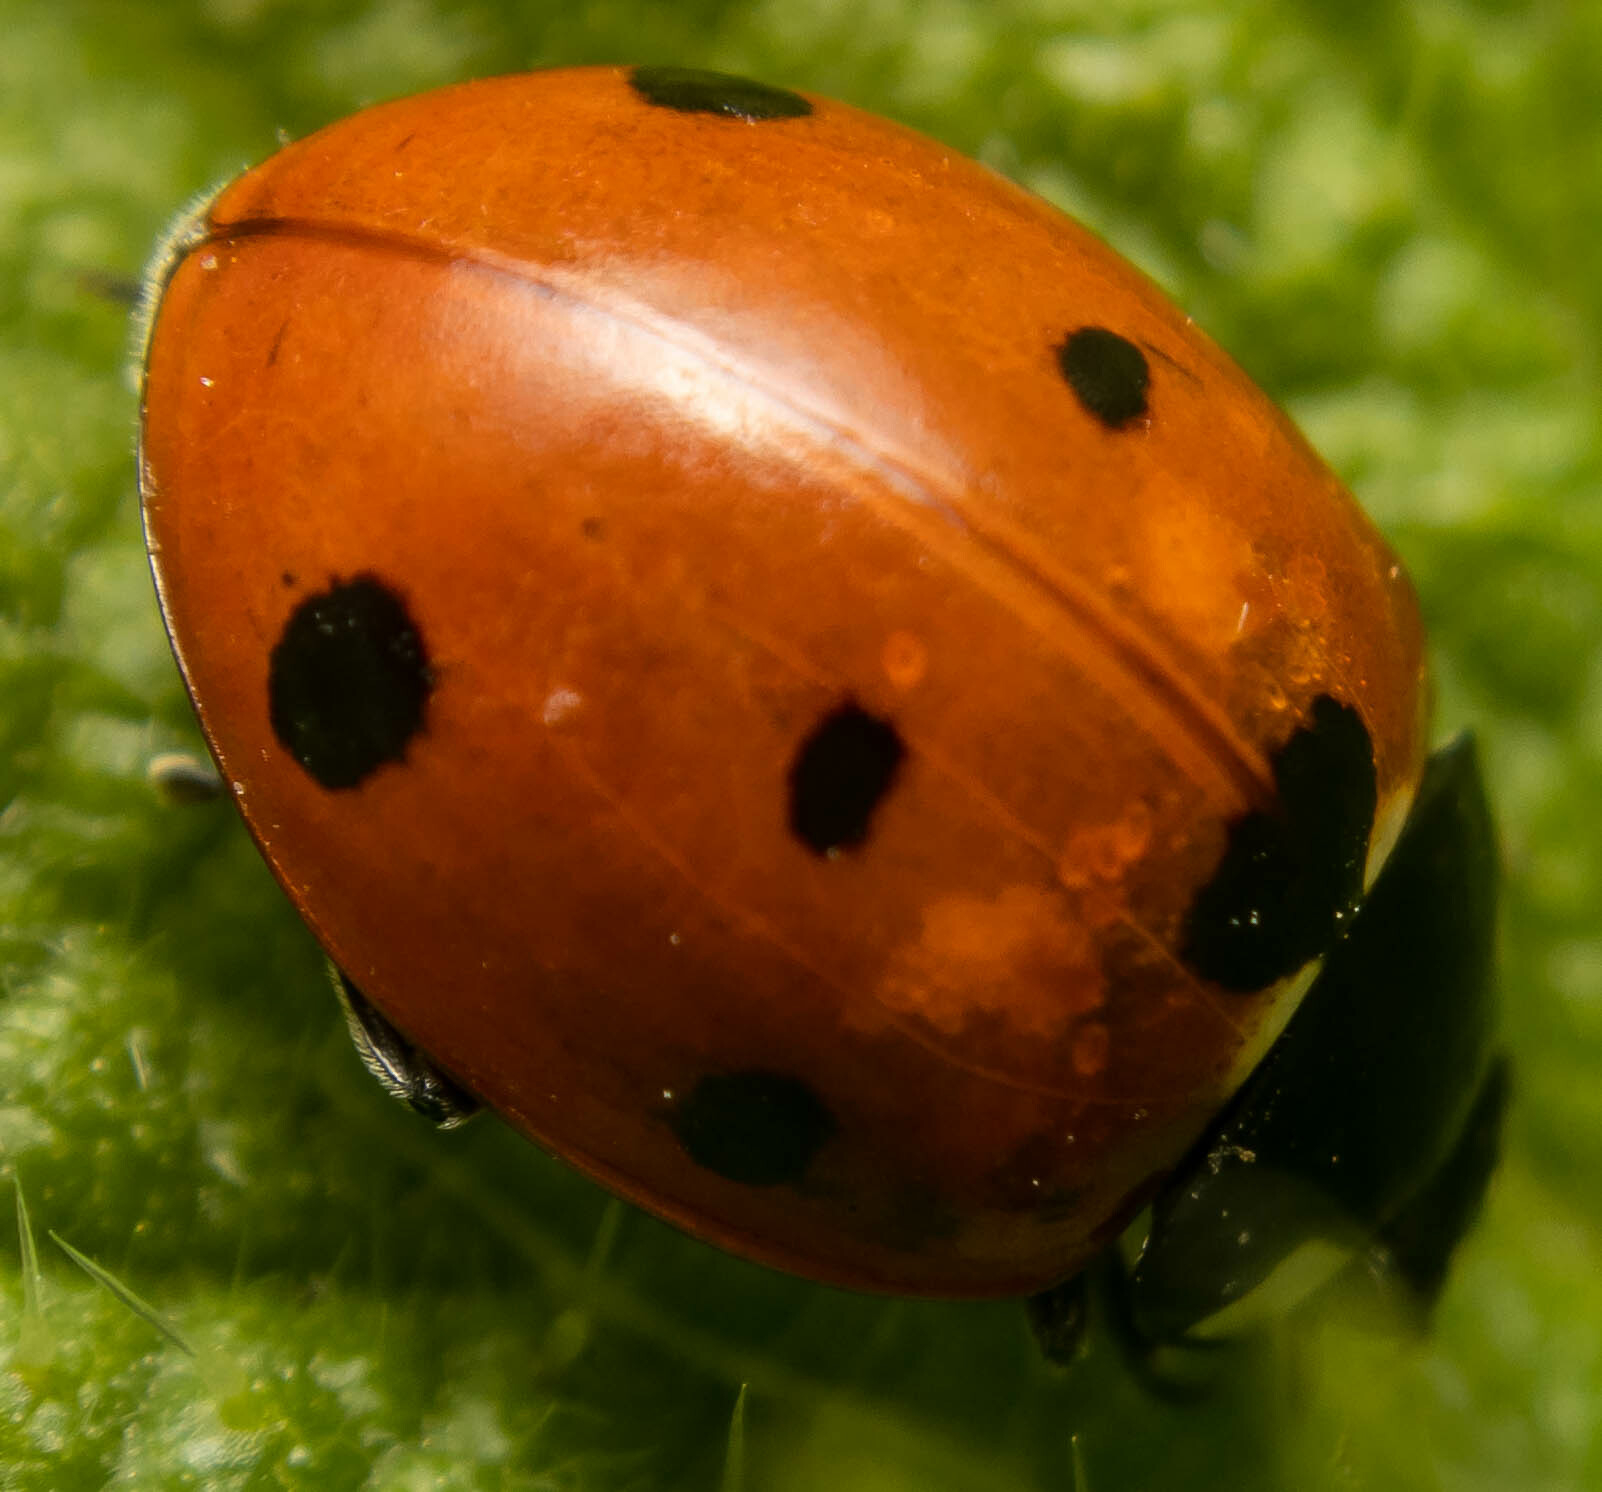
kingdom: Animalia
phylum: Arthropoda
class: Insecta
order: Coleoptera
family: Coccinellidae
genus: Coccinella
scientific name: Coccinella septempunctata
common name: Sevenspotted lady beetle
